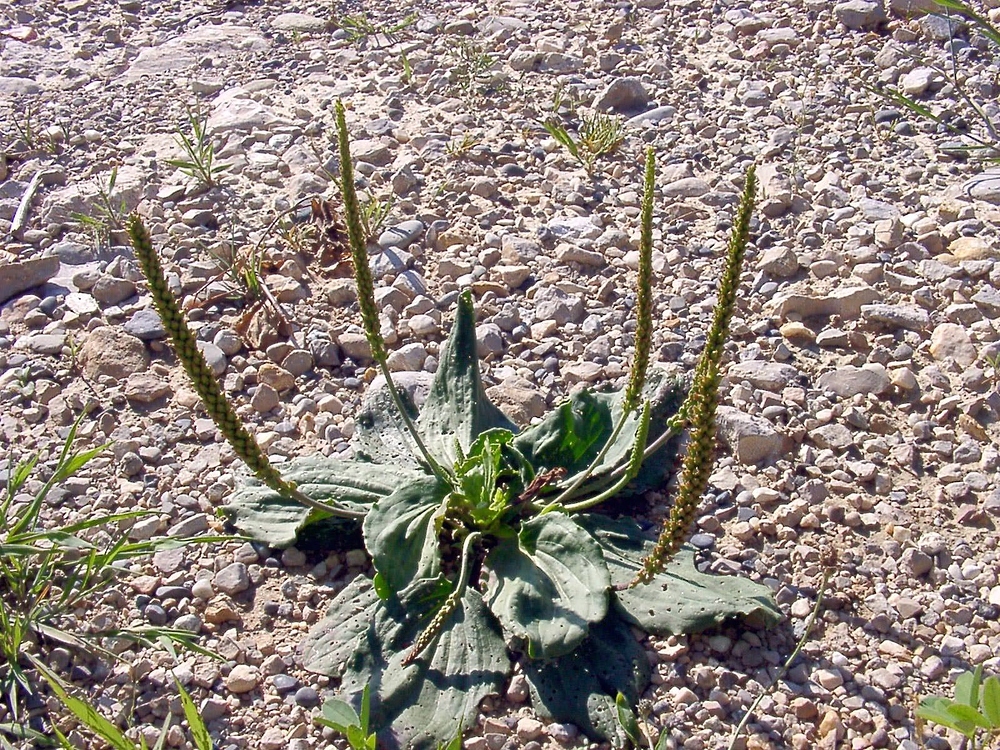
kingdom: Plantae
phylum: Tracheophyta
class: Magnoliopsida
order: Lamiales
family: Plantaginaceae
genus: Plantago
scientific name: Plantago major
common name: Common plantain
